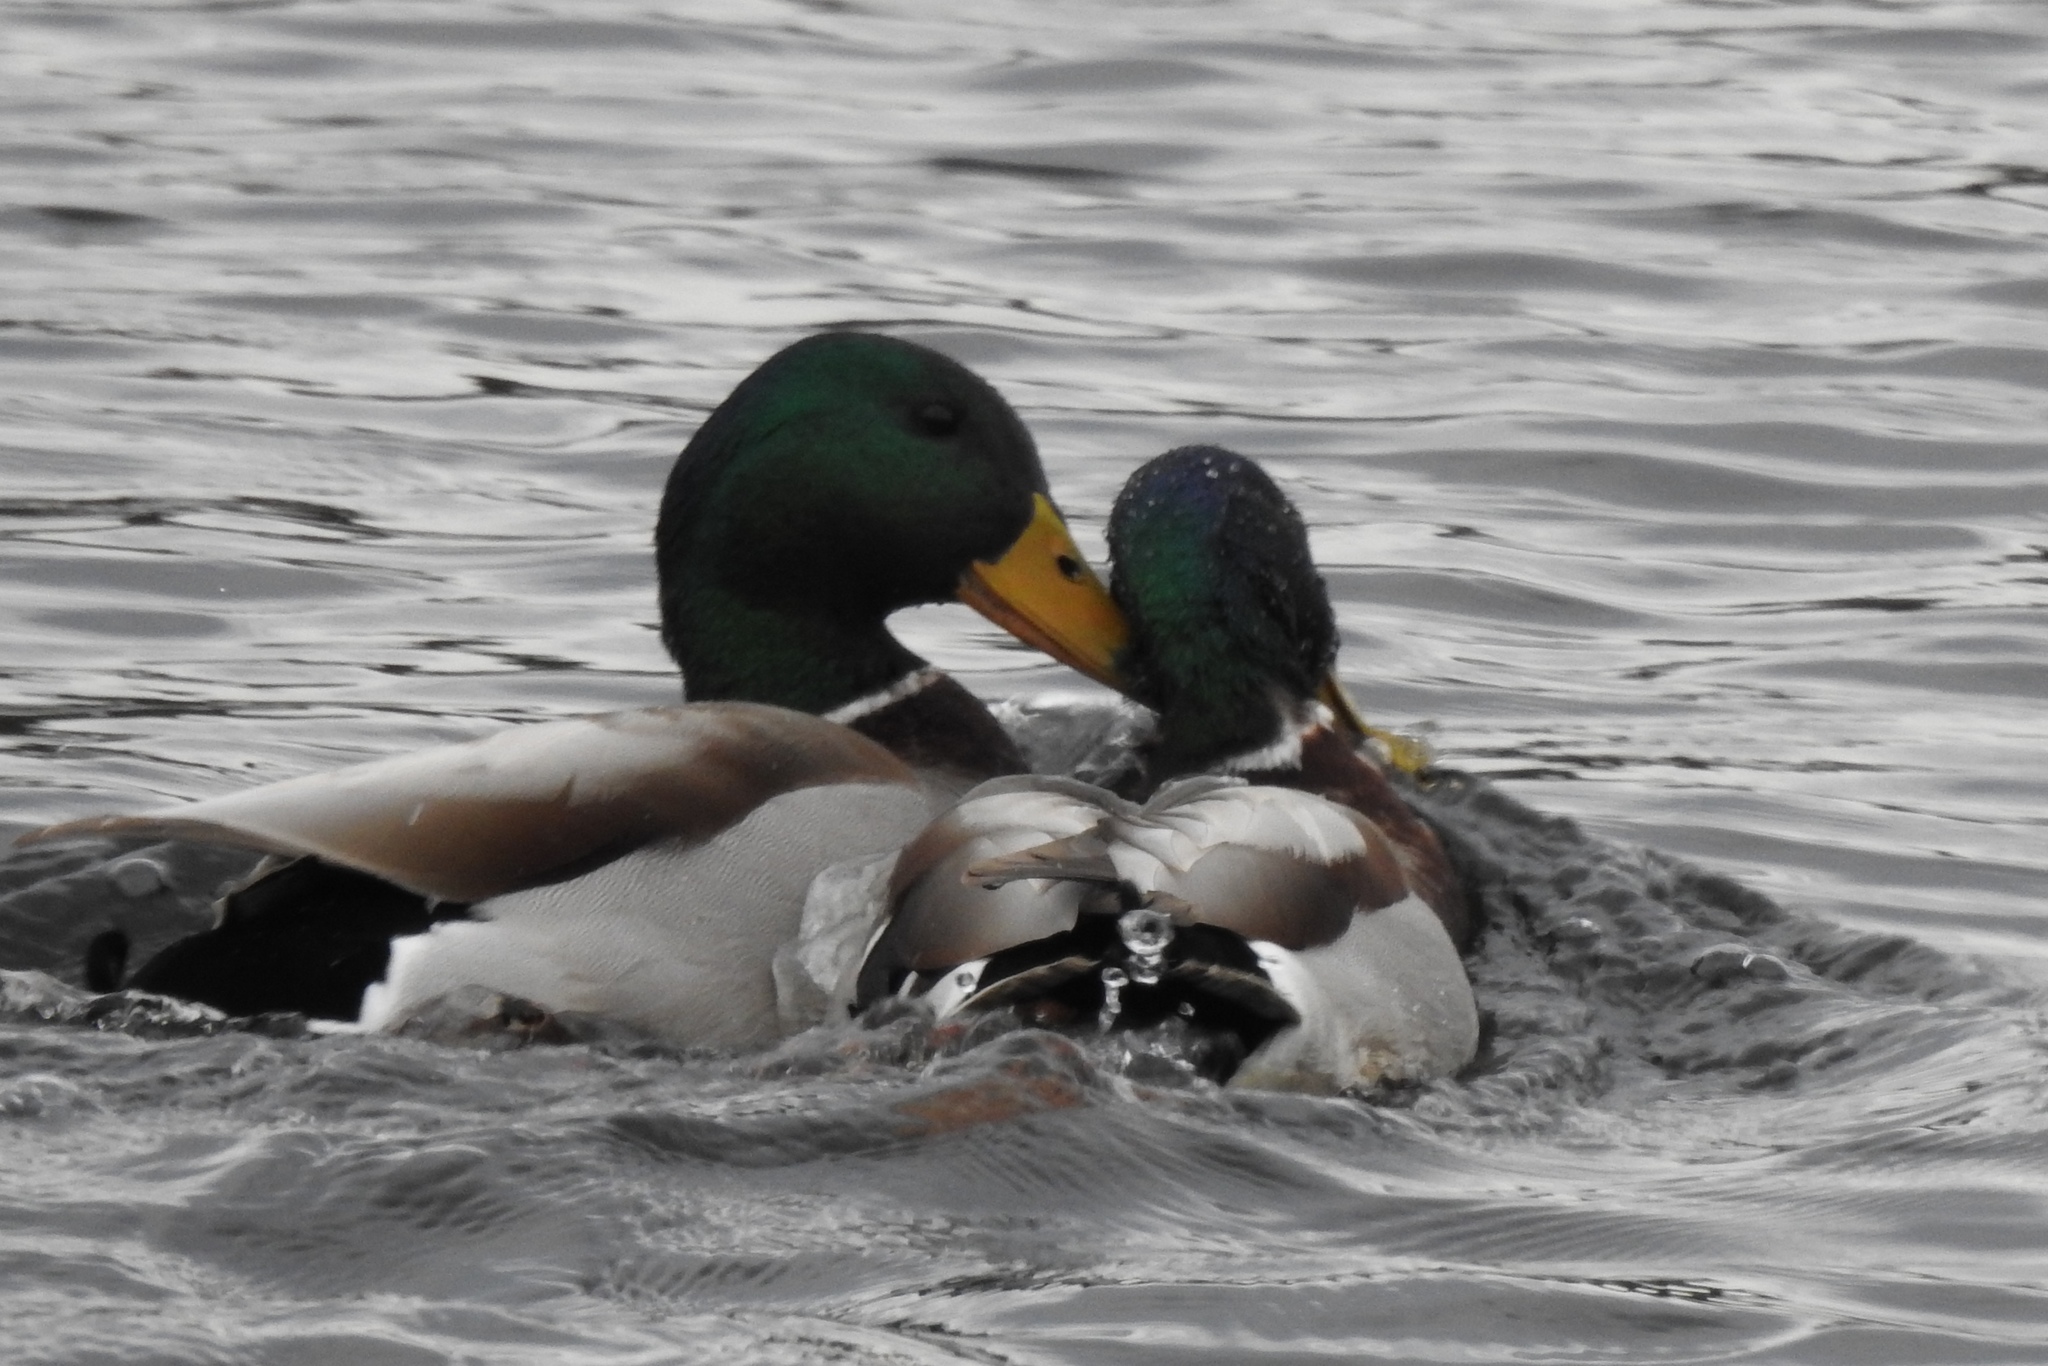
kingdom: Animalia
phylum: Chordata
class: Aves
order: Anseriformes
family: Anatidae
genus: Anas
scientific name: Anas platyrhynchos
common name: Mallard
